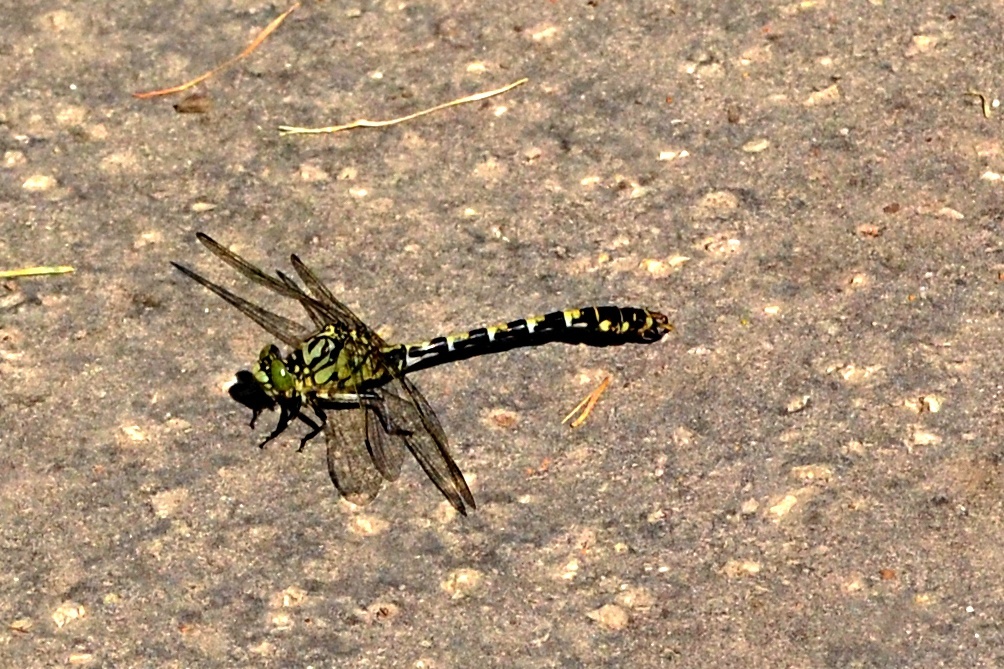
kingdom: Animalia
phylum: Arthropoda
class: Insecta
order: Odonata
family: Gomphidae
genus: Onychogomphus
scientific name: Onychogomphus forcipatus
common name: Small pincertail
